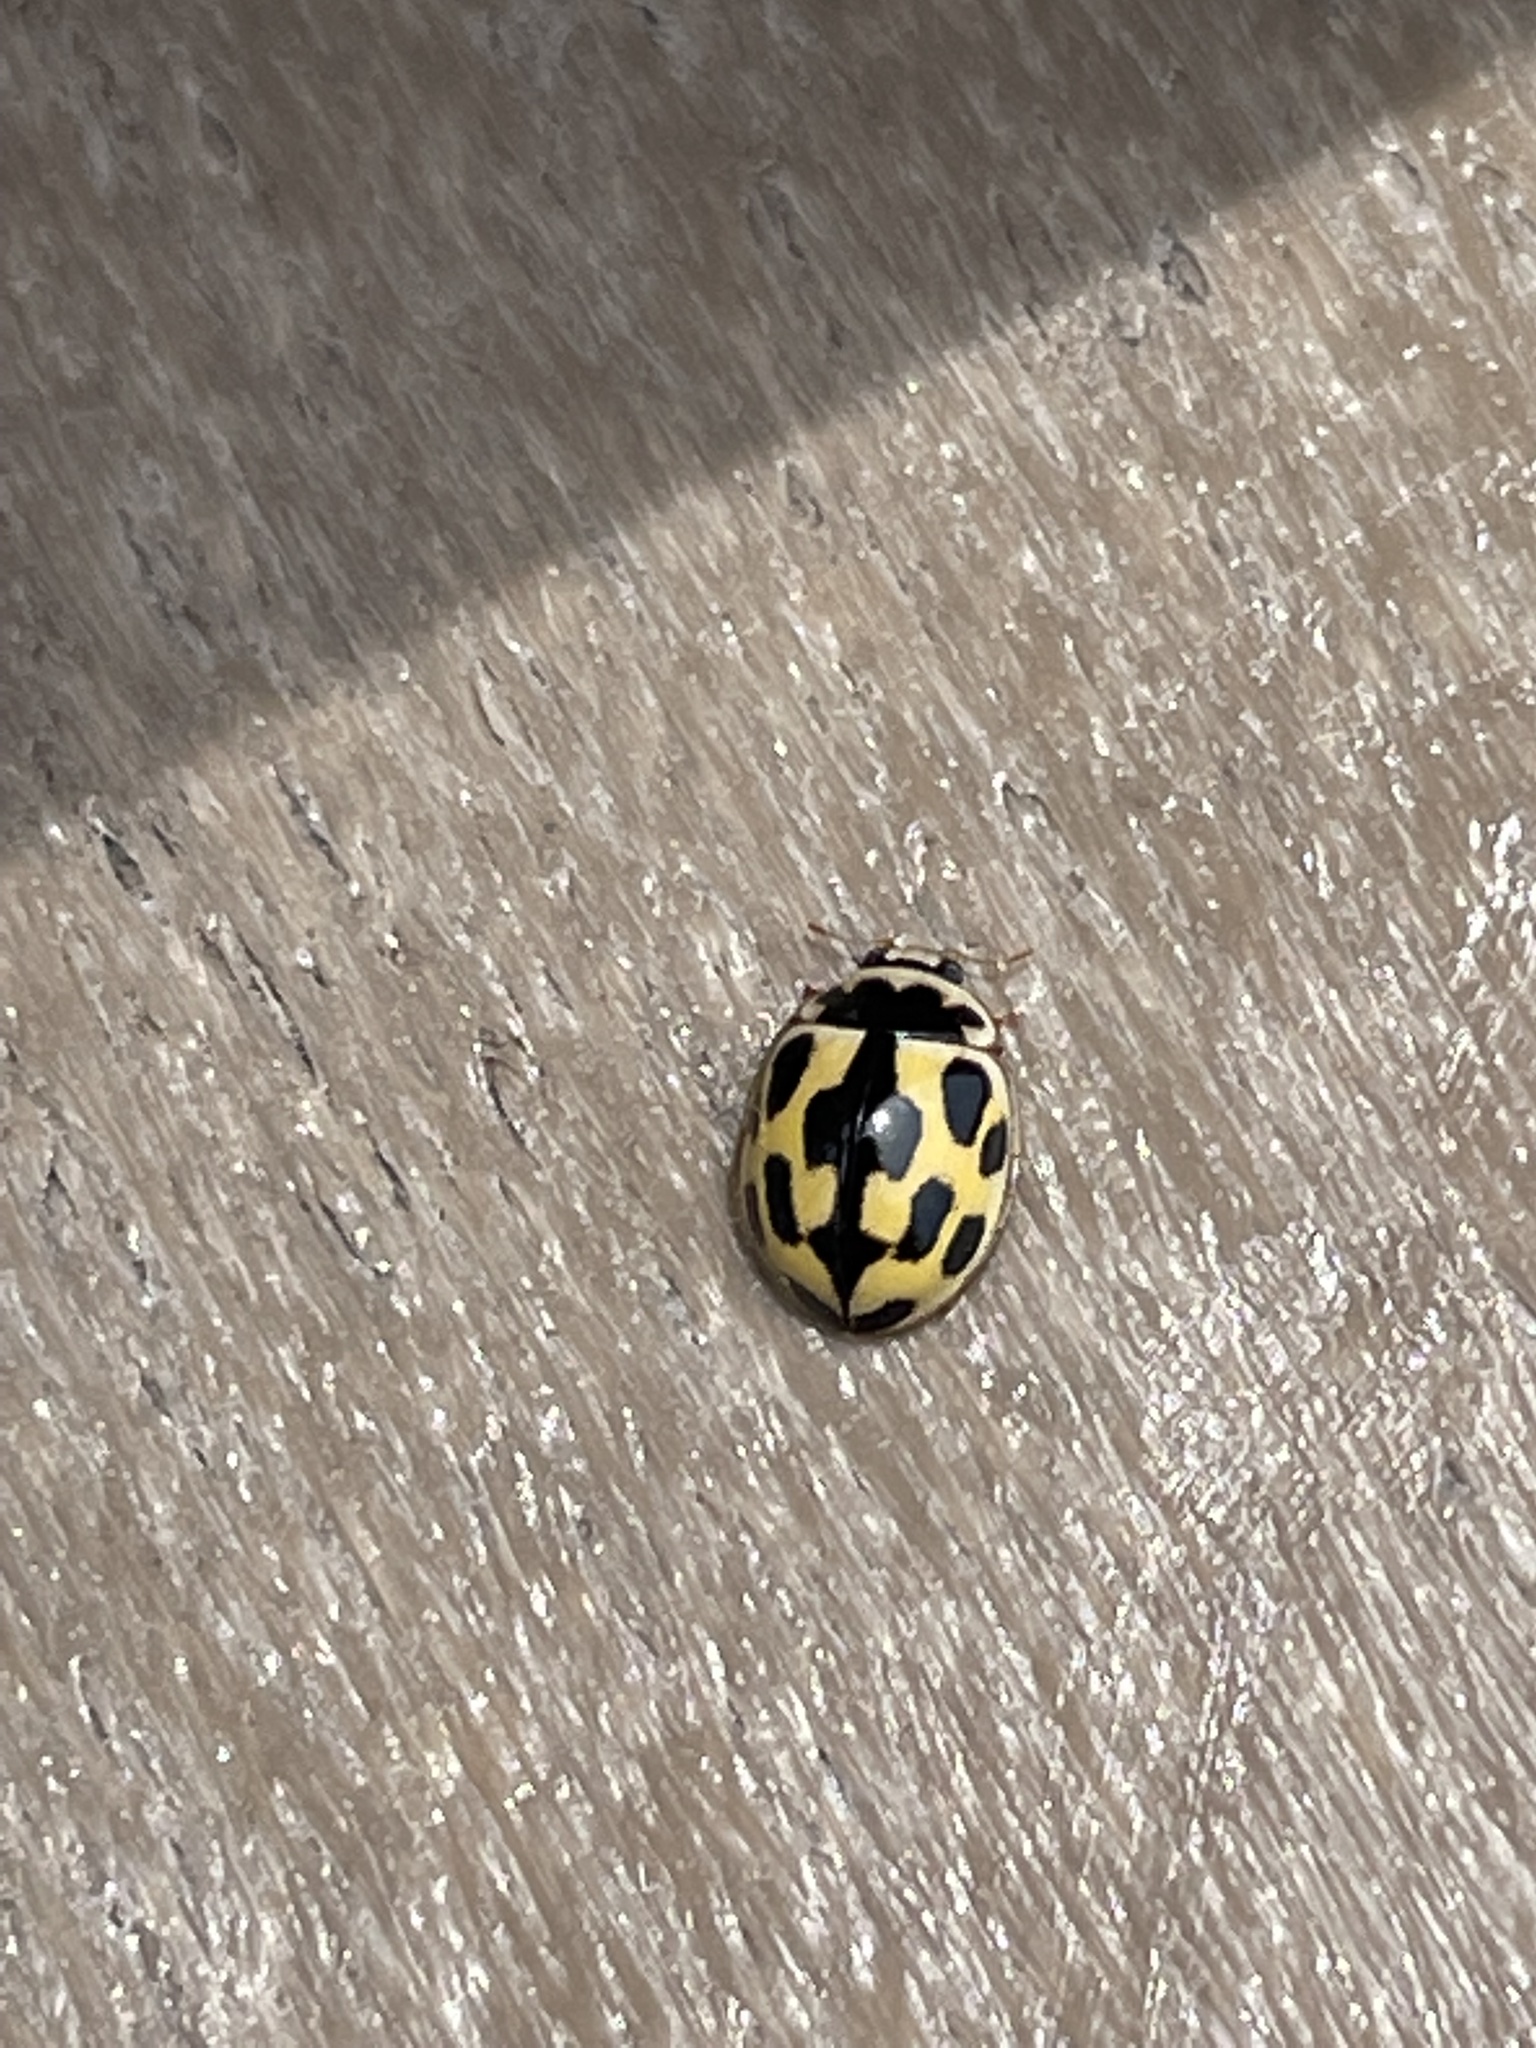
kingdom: Animalia
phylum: Arthropoda
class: Insecta
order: Coleoptera
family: Coccinellidae
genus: Propylaea
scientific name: Propylaea quatuordecimpunctata
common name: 14-spotted ladybird beetle
